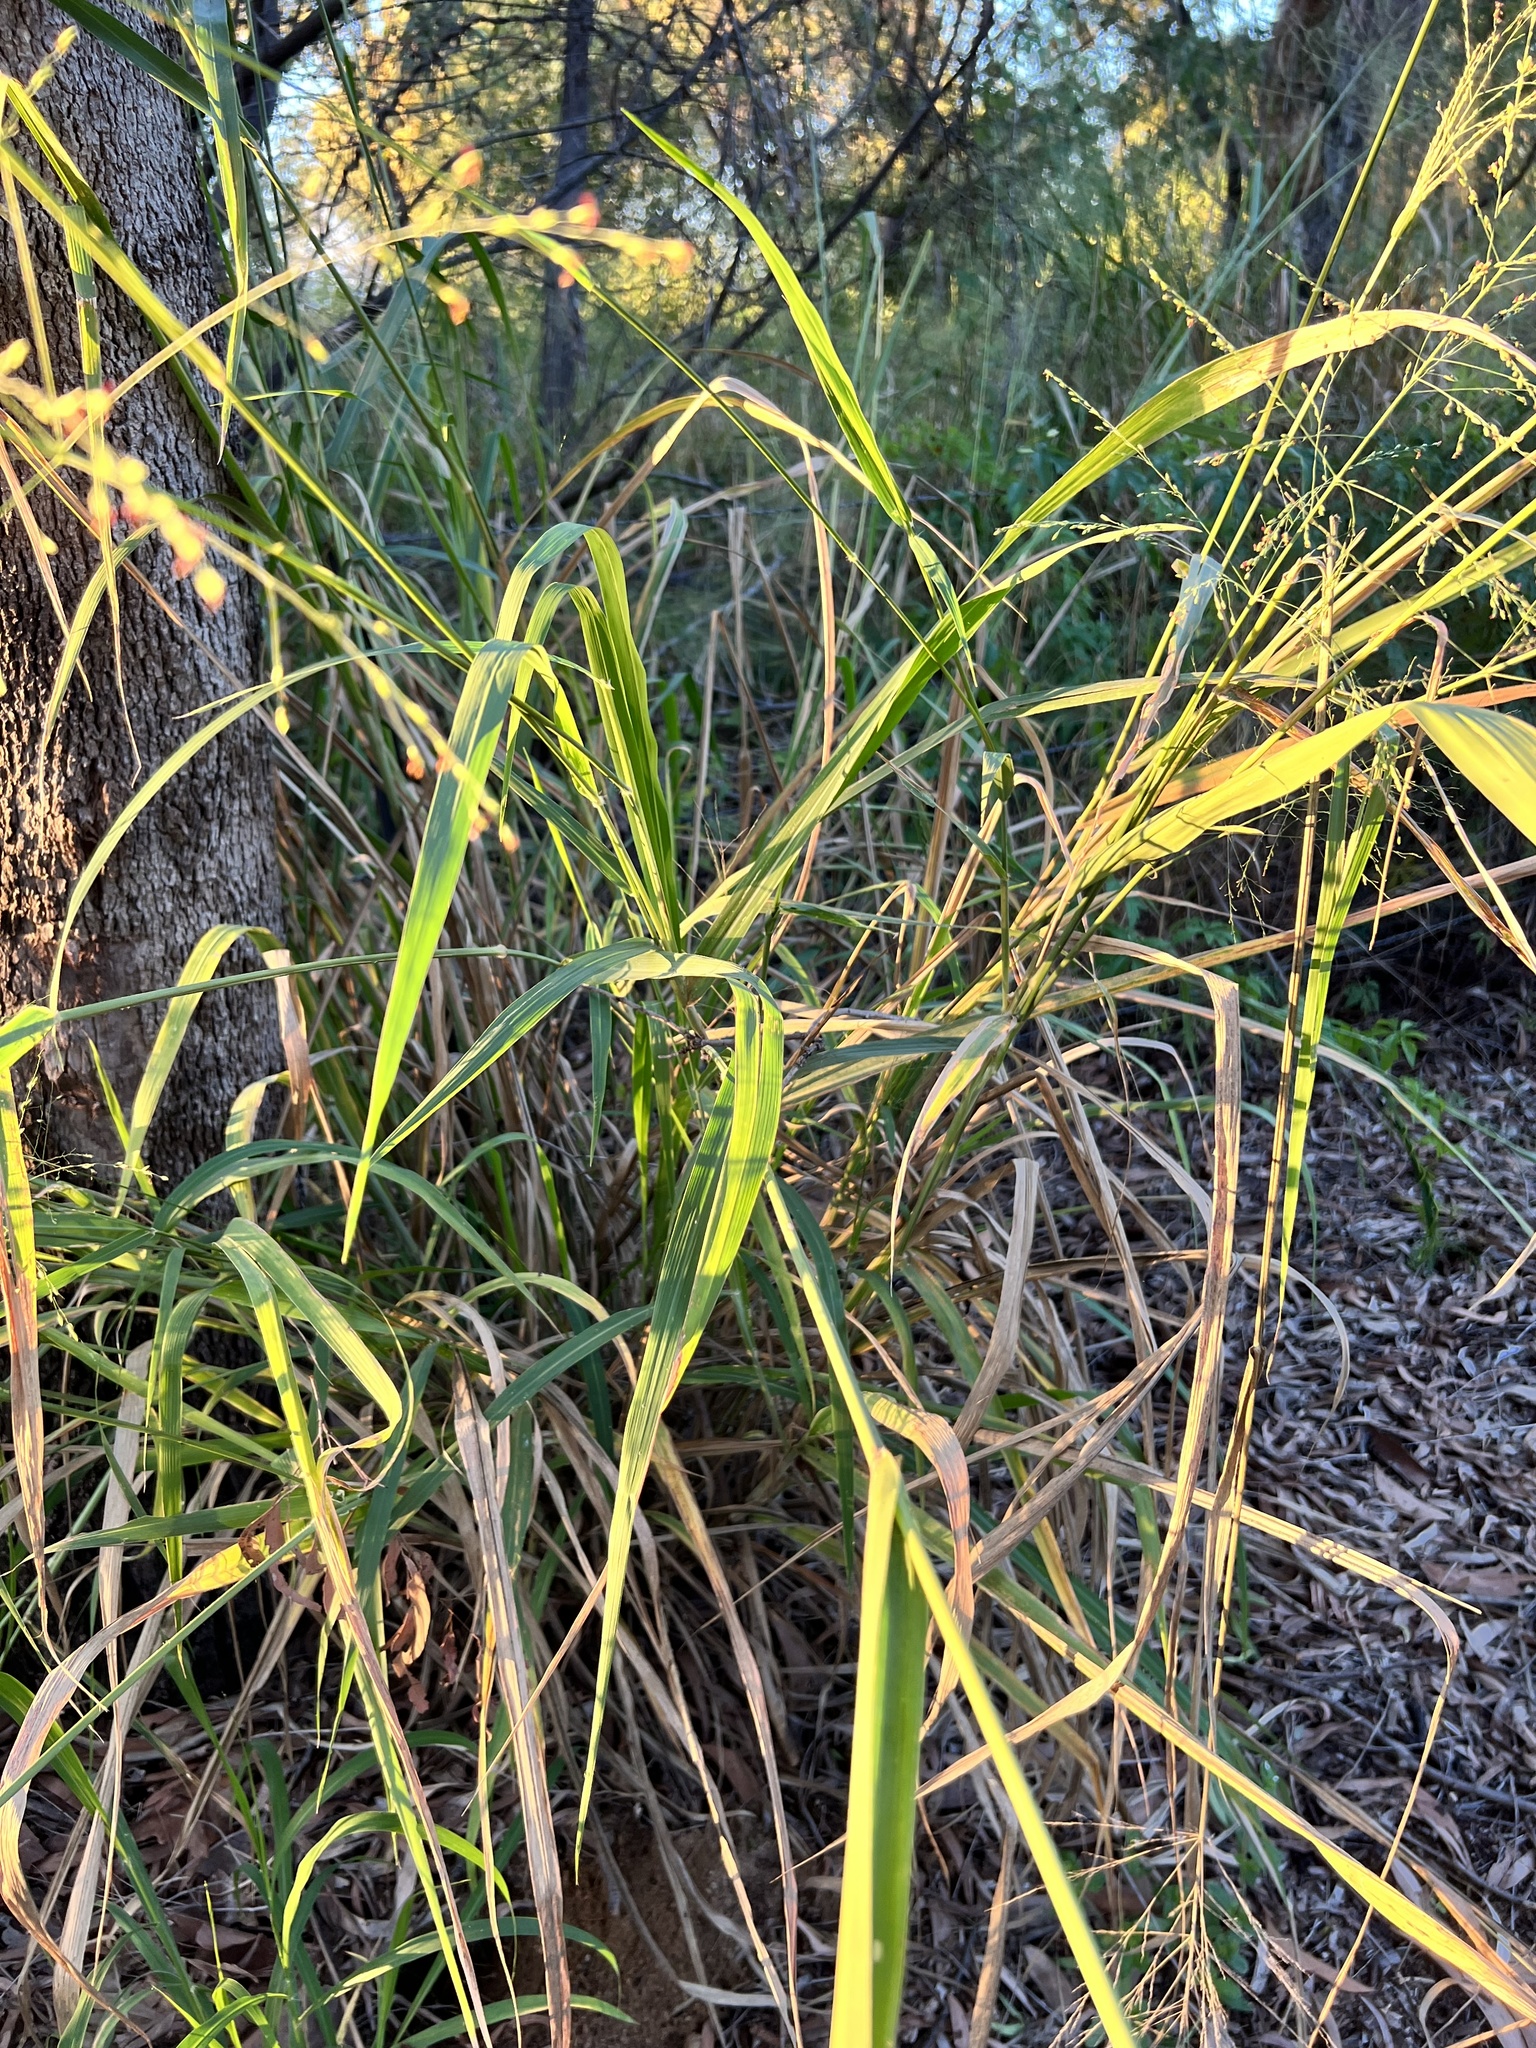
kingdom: Plantae
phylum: Tracheophyta
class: Liliopsida
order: Poales
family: Poaceae
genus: Megathyrsus
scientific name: Megathyrsus maximus
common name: Guineagrass
